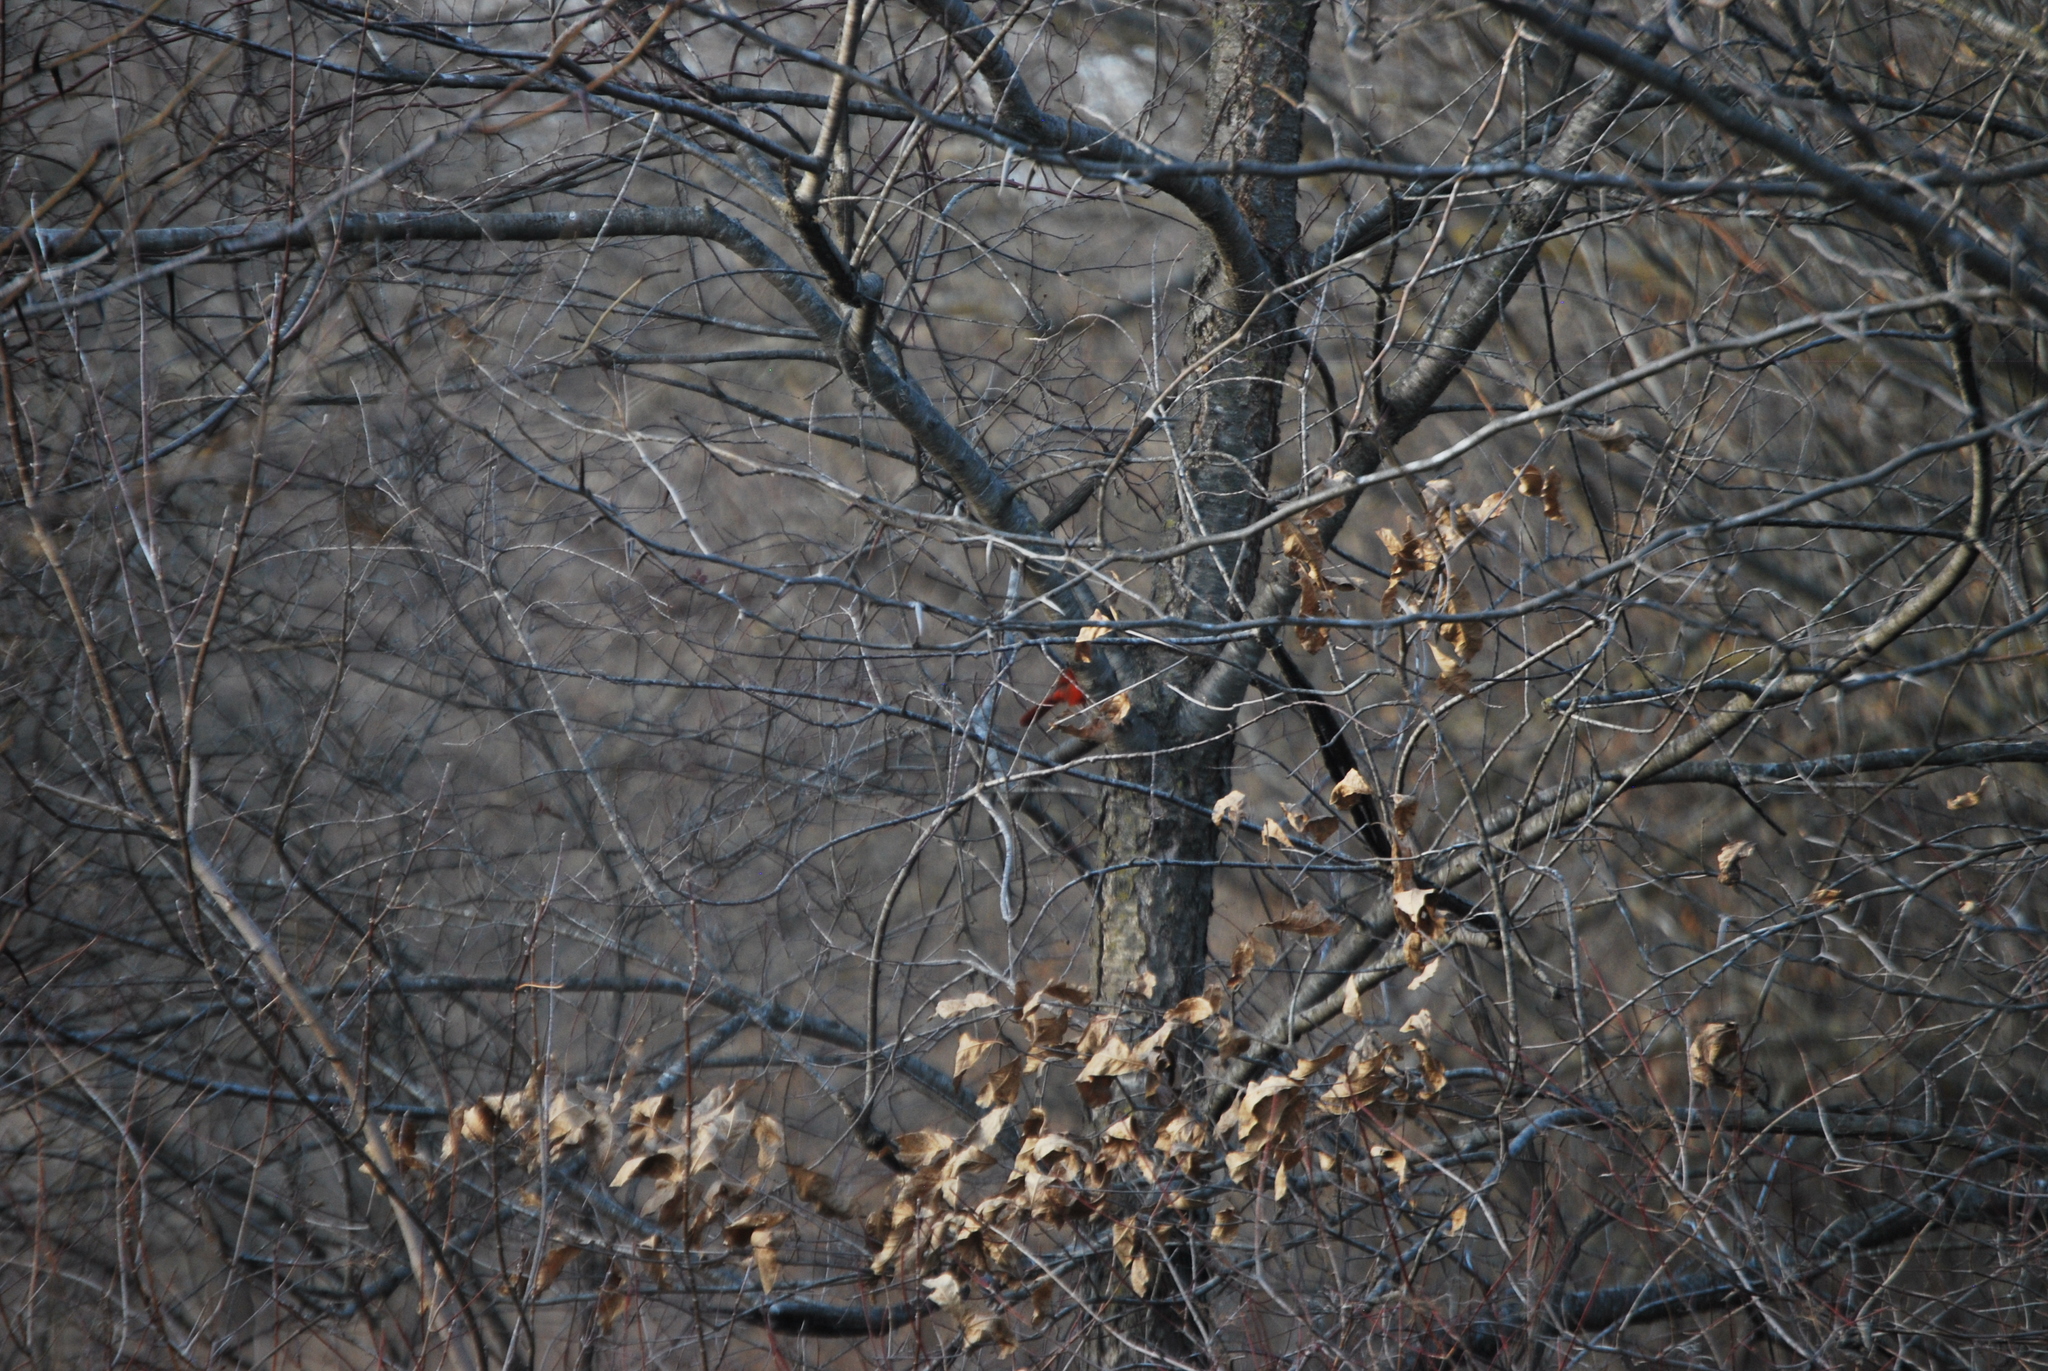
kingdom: Animalia
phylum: Chordata
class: Aves
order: Passeriformes
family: Cardinalidae
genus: Cardinalis
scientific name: Cardinalis cardinalis
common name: Northern cardinal
